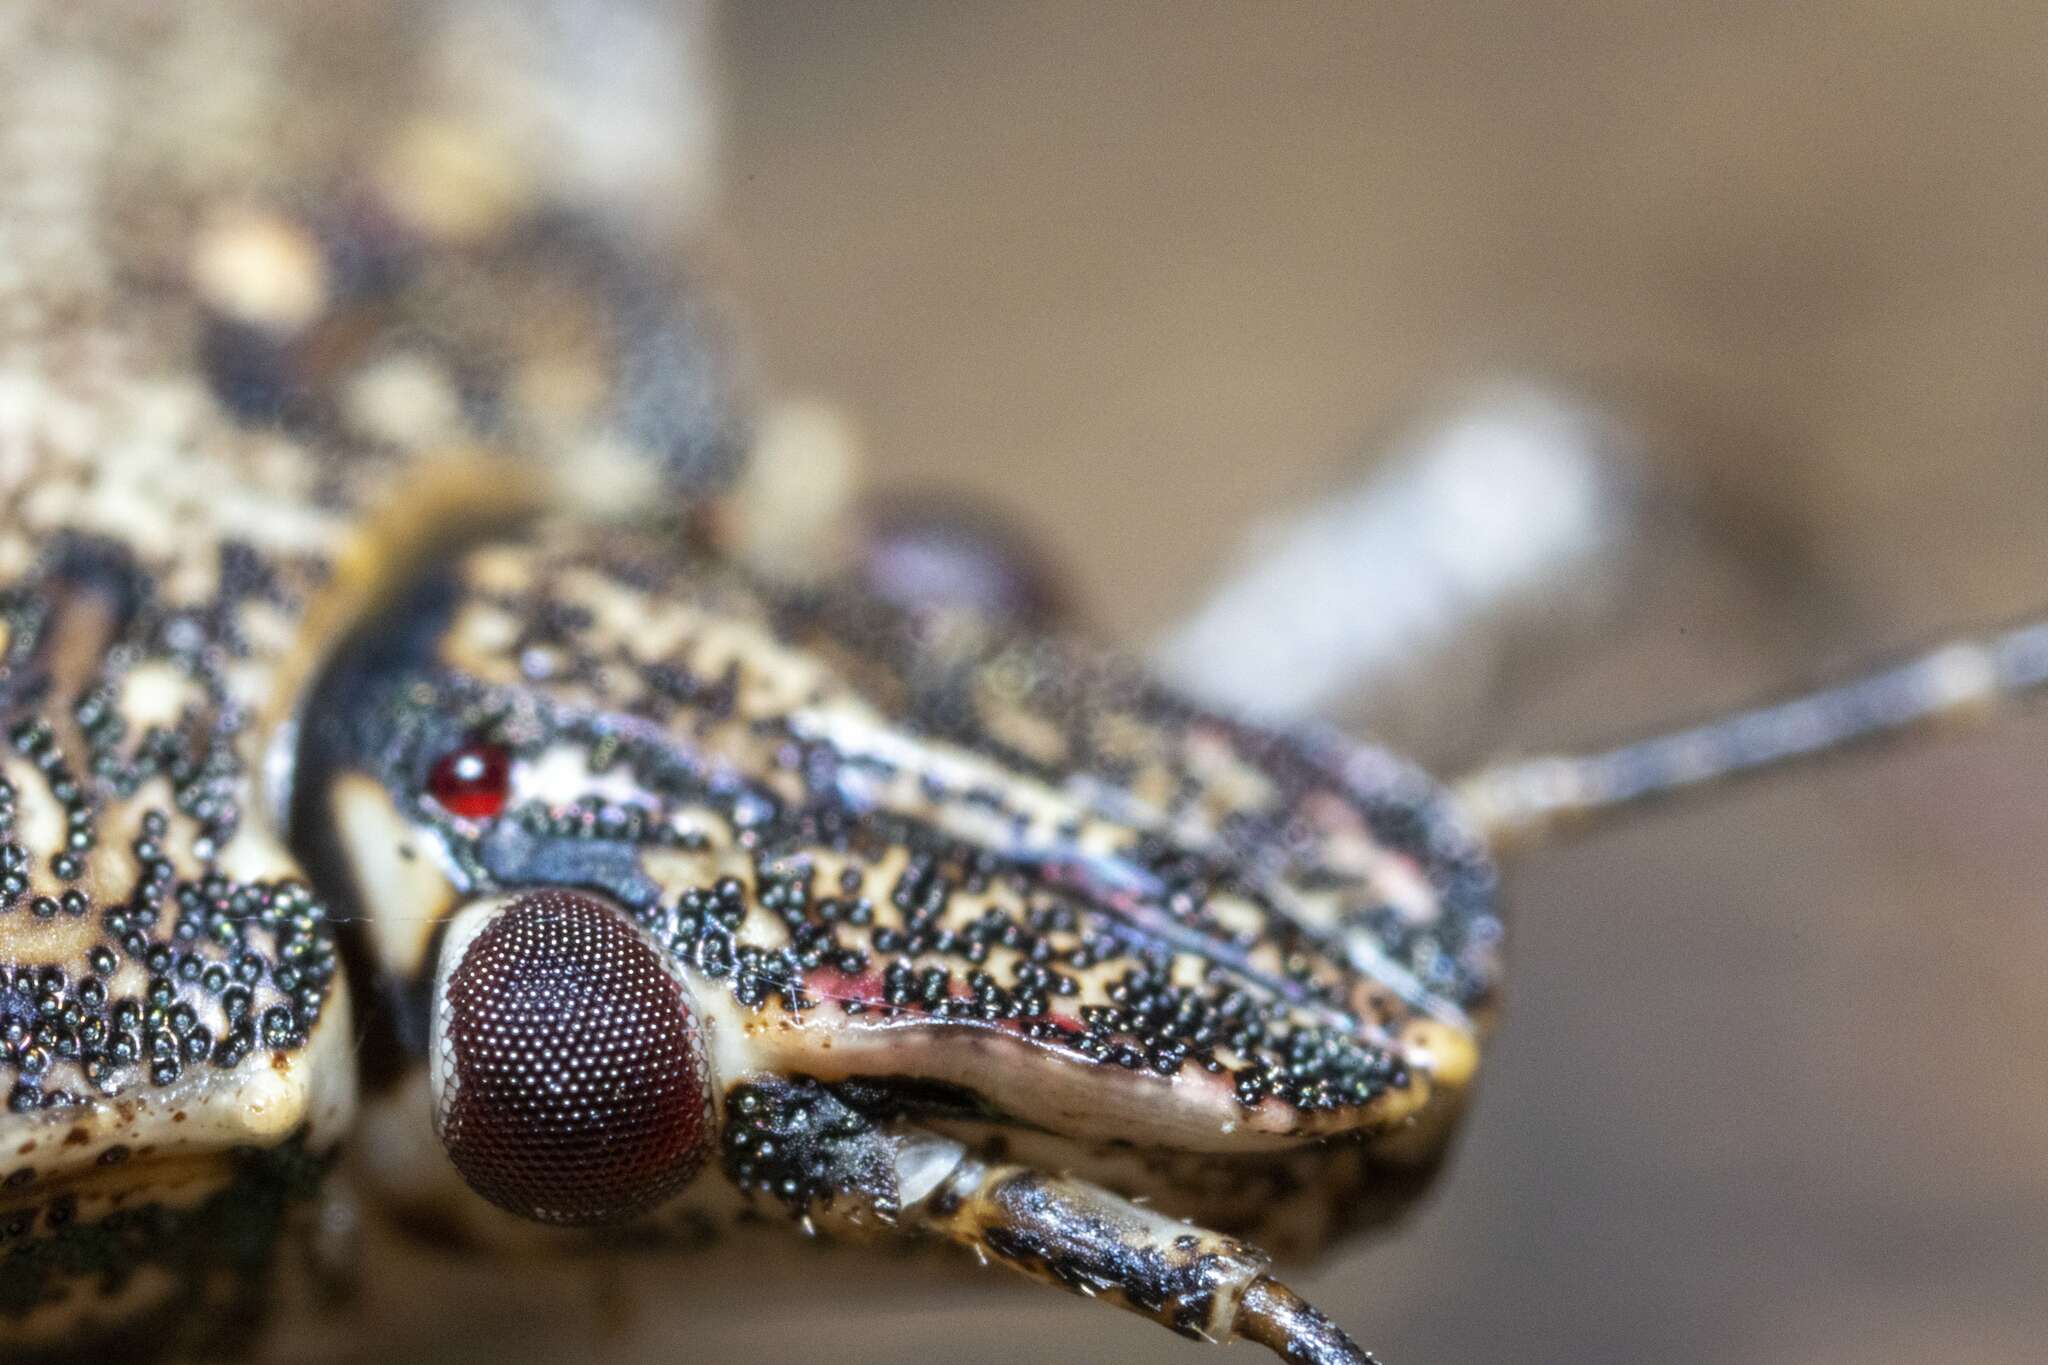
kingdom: Animalia
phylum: Arthropoda
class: Insecta
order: Hemiptera
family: Pentatomidae
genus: Halyomorpha
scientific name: Halyomorpha halys
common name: Brown marmorated stink bug
